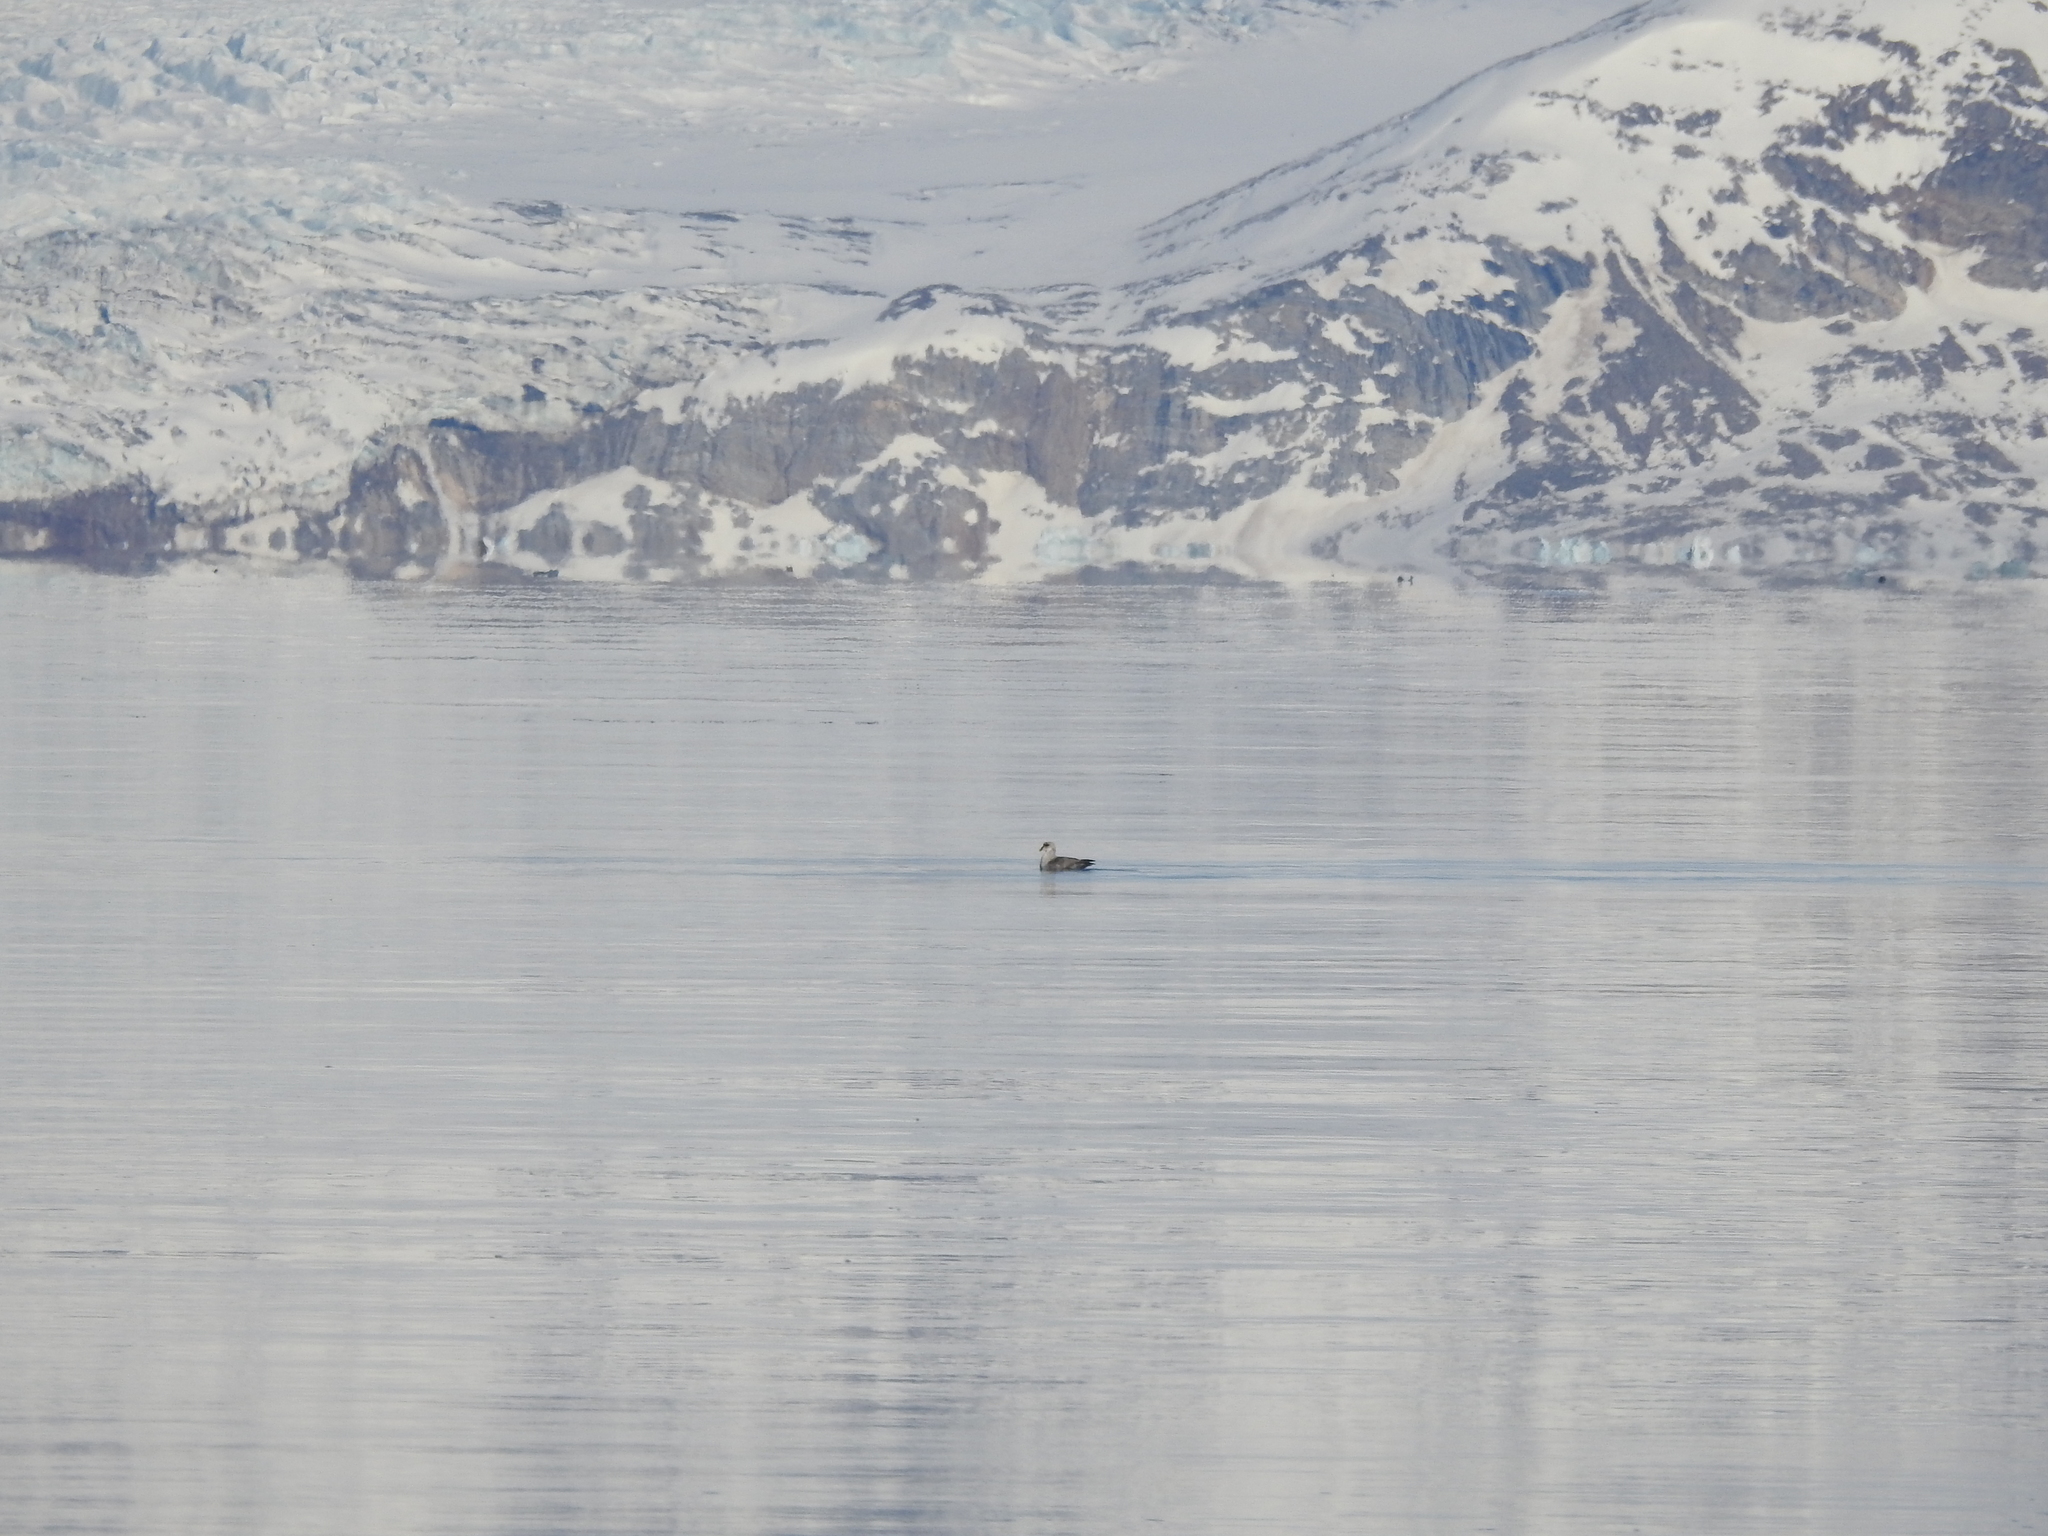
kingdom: Animalia
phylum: Chordata
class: Aves
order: Procellariiformes
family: Procellariidae
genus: Fulmarus
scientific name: Fulmarus glacialis
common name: Northern fulmar
